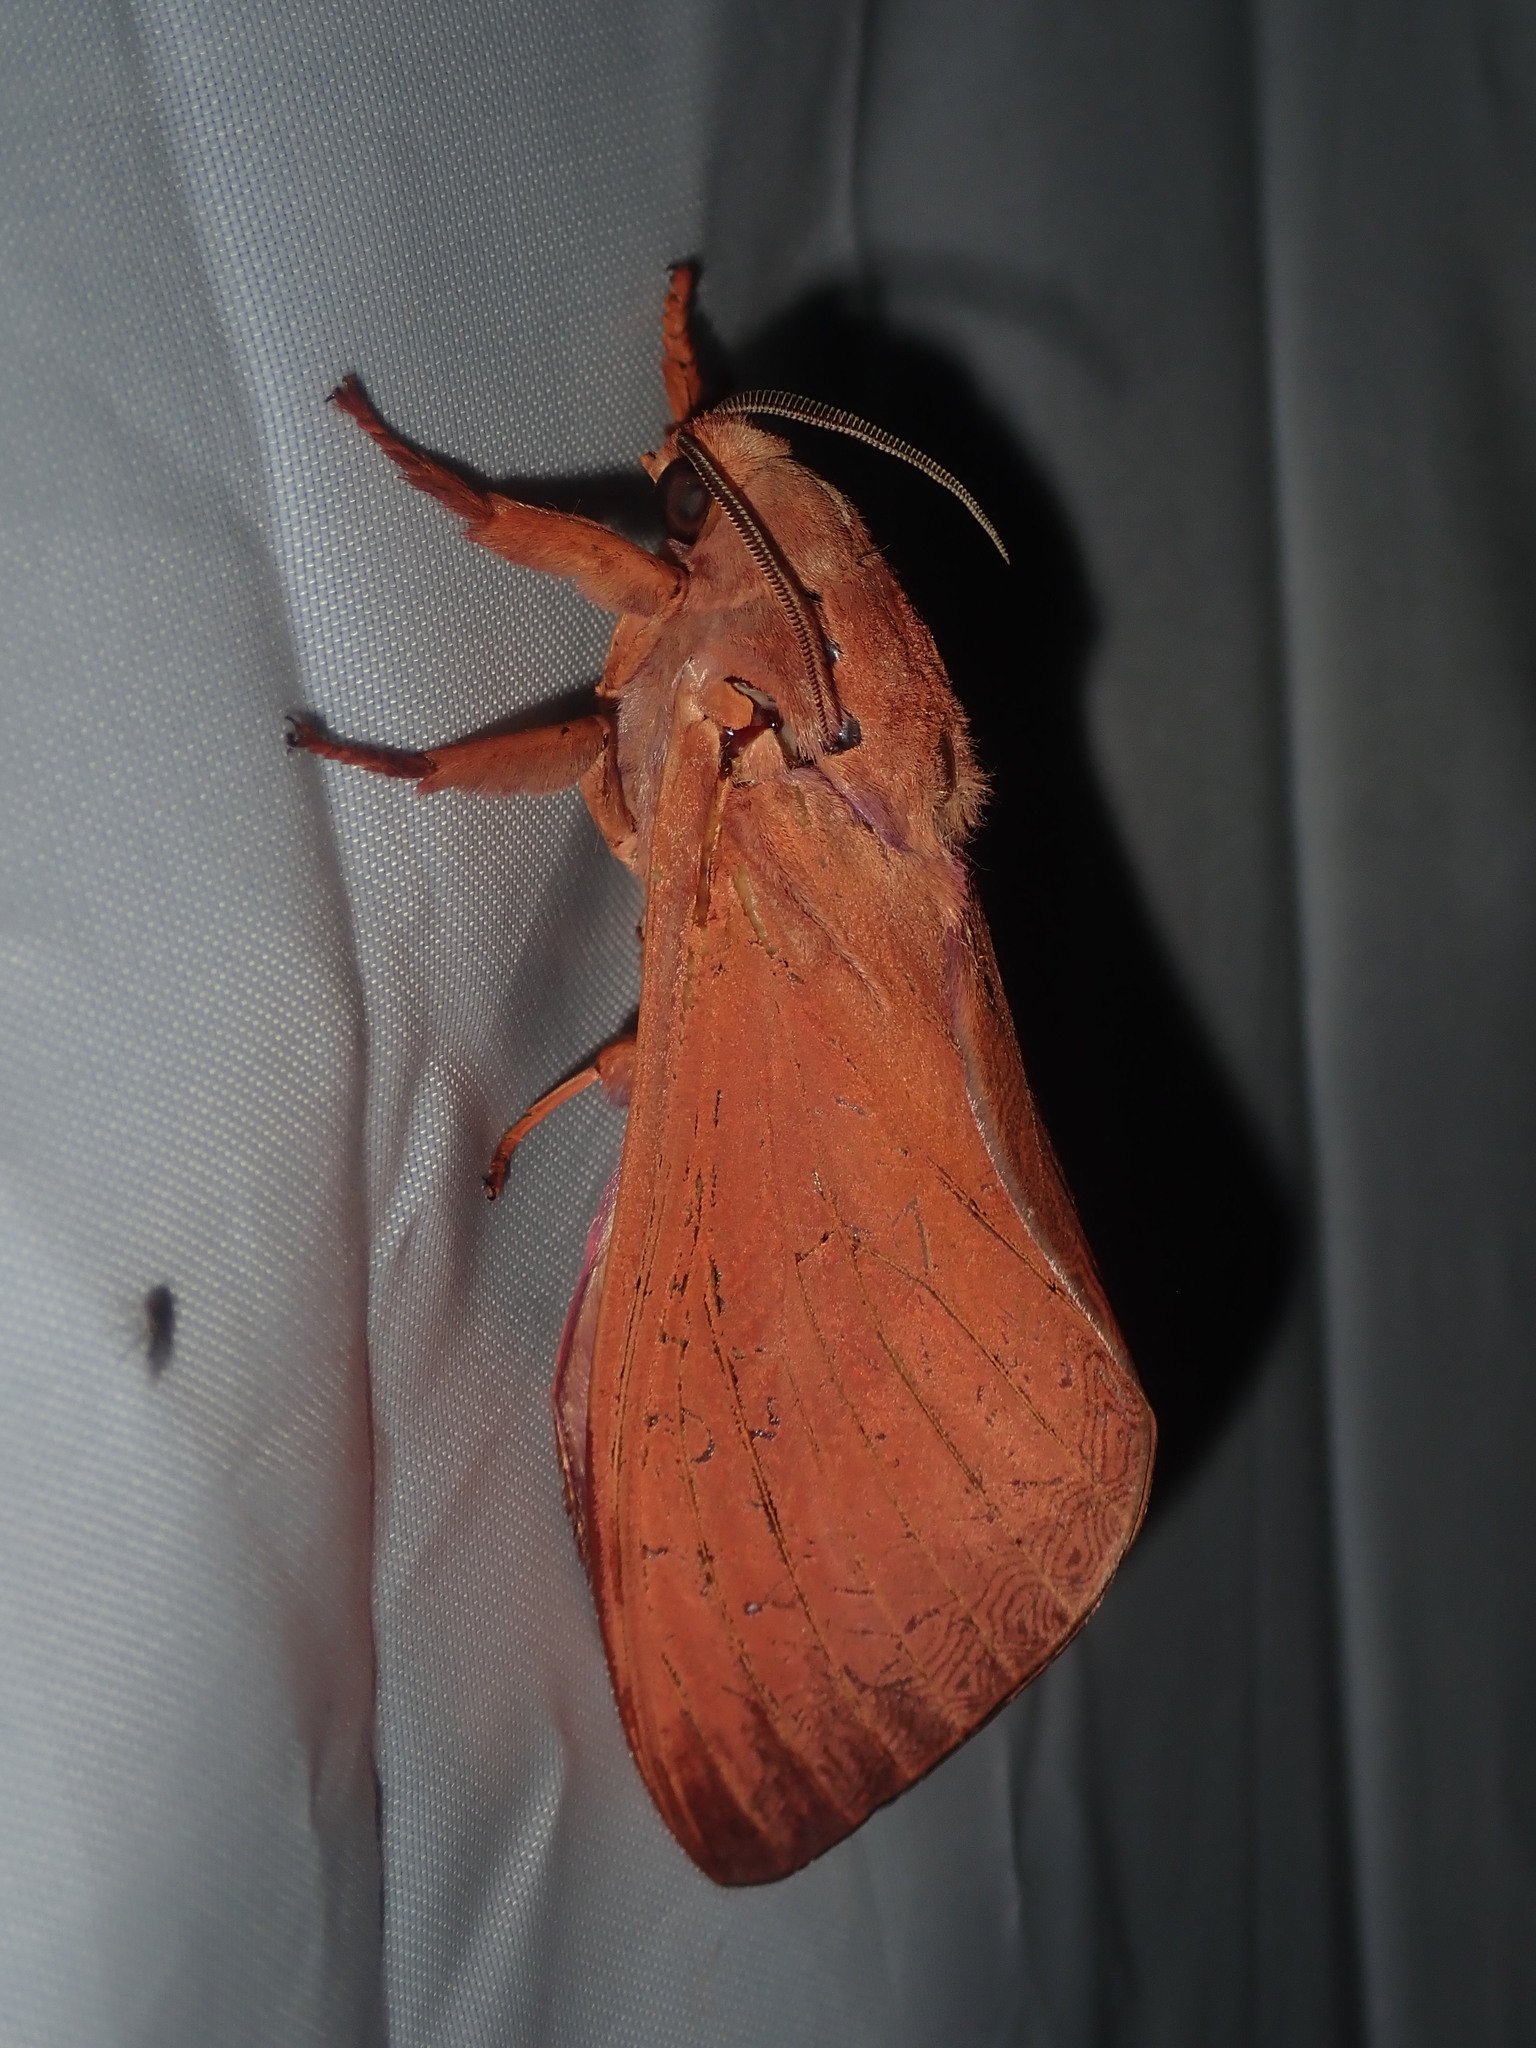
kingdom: Animalia
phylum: Arthropoda
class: Insecta
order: Lepidoptera
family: Hepialidae
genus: Abantiades
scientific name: Abantiades hyalinatus
